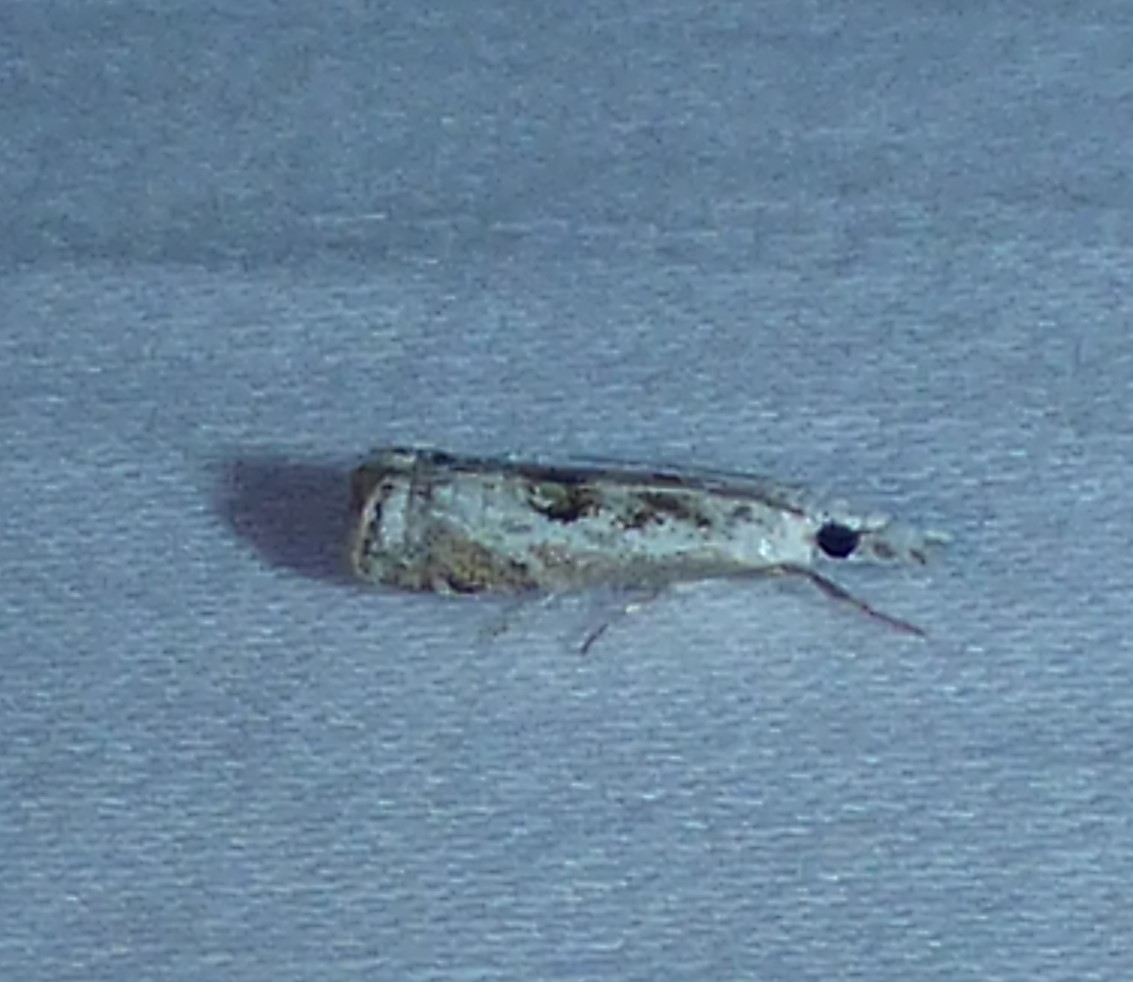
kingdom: Animalia
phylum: Arthropoda
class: Insecta
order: Lepidoptera
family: Crambidae
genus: Microcrambus
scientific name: Microcrambus immunellus
